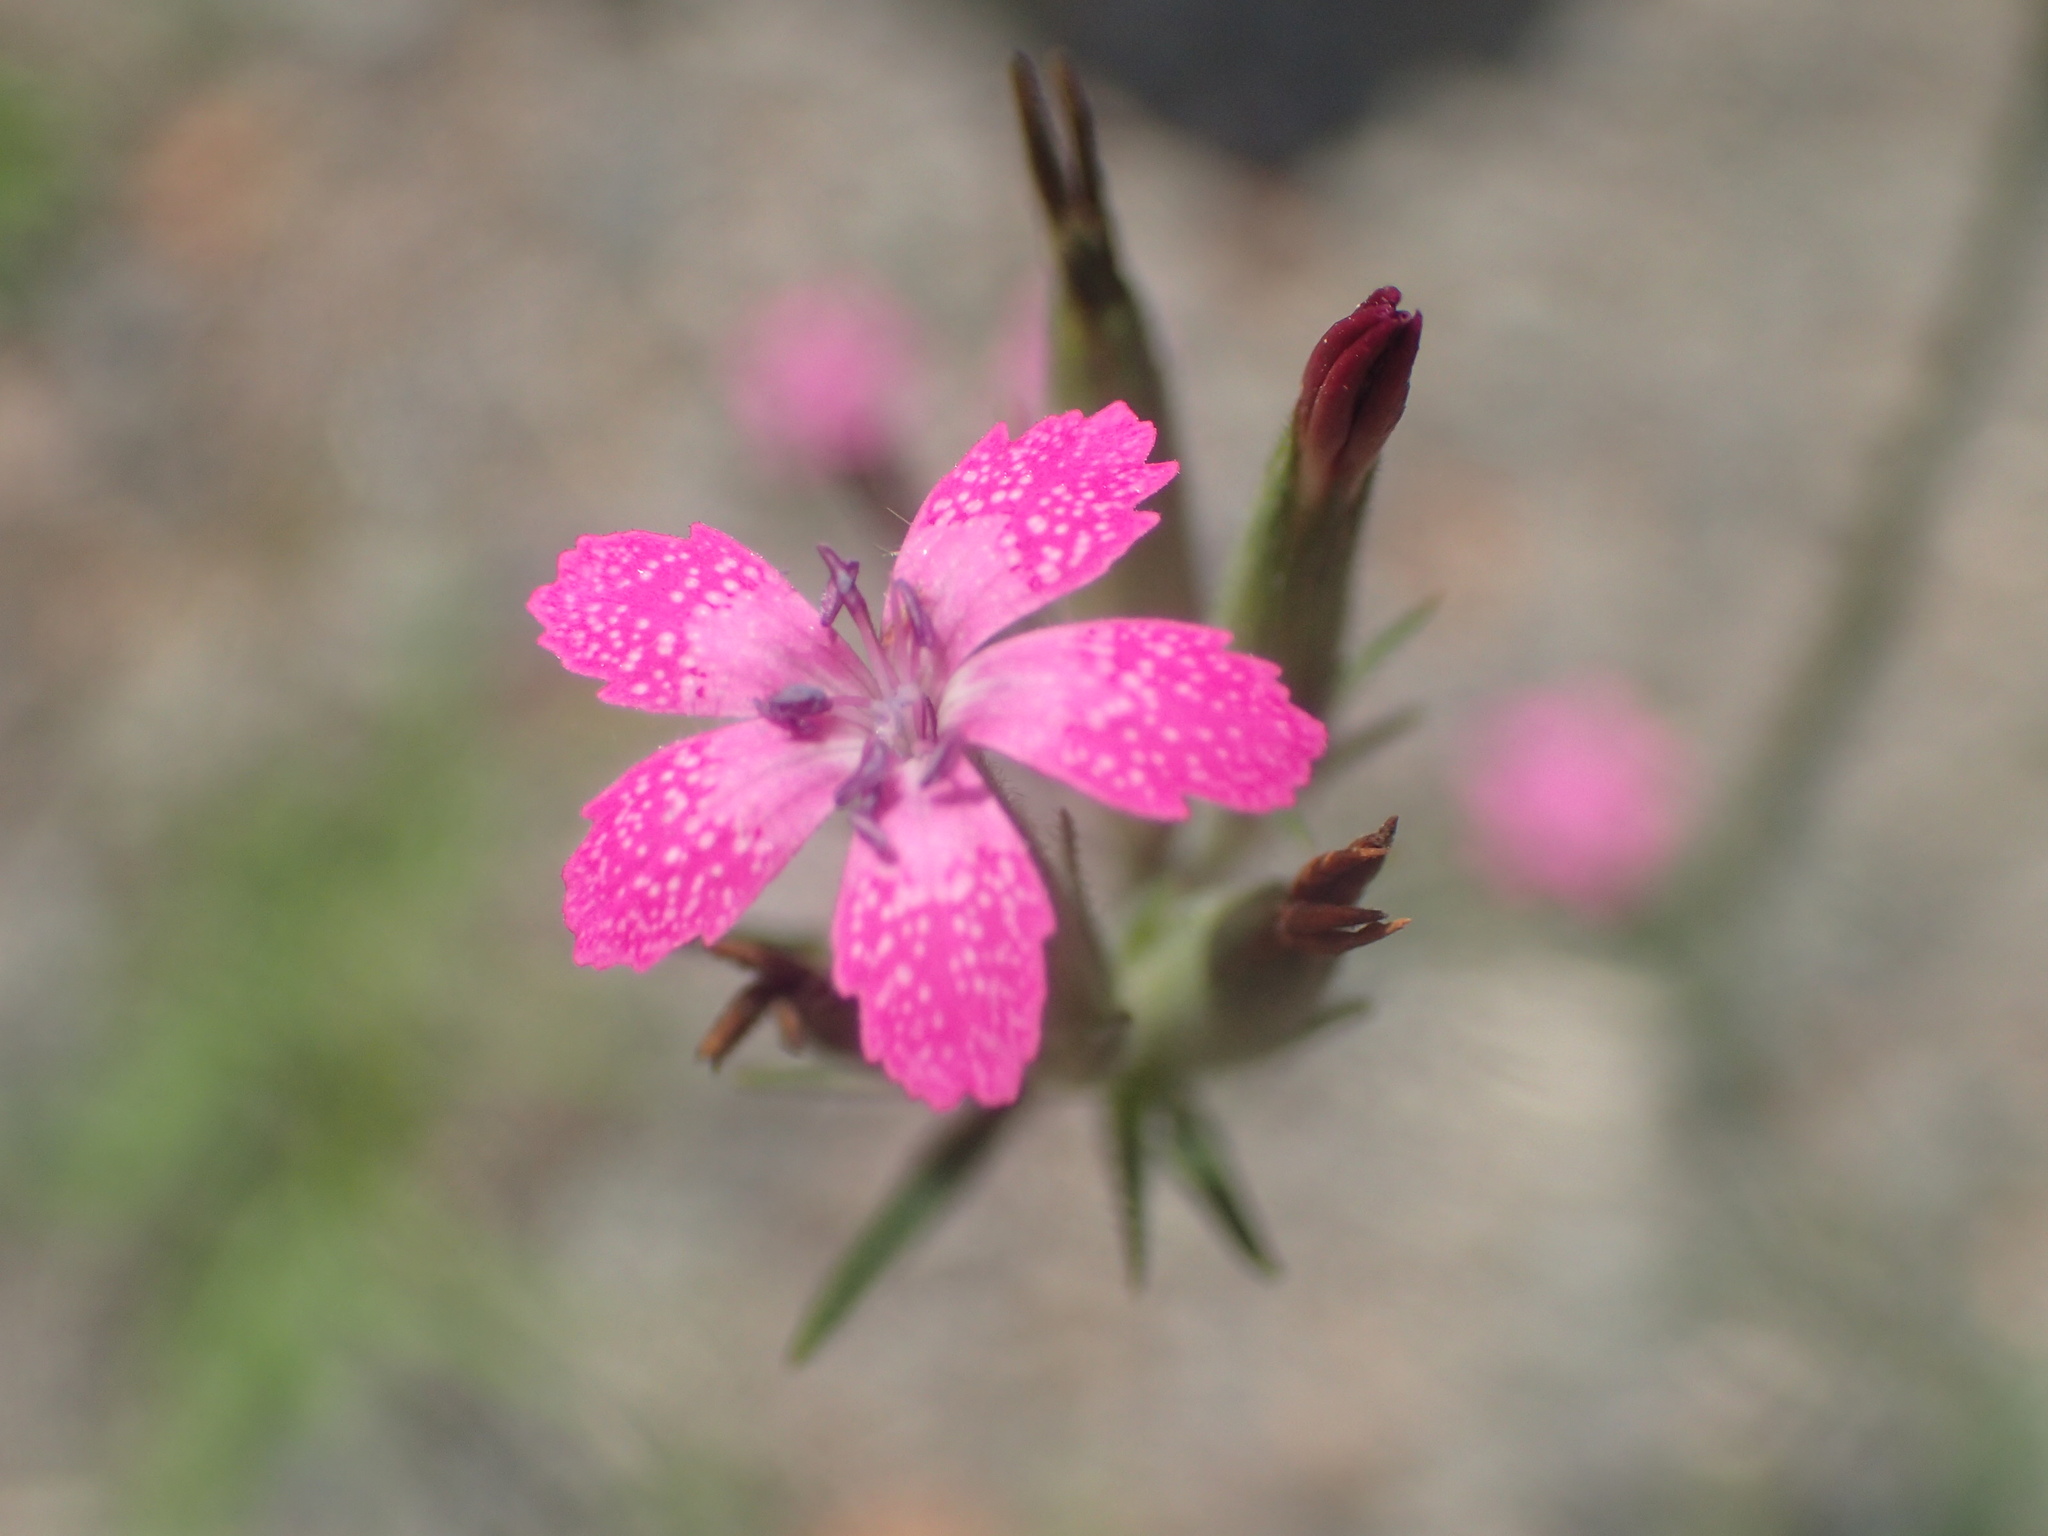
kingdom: Plantae
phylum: Tracheophyta
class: Magnoliopsida
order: Caryophyllales
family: Caryophyllaceae
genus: Dianthus
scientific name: Dianthus armeria
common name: Deptford pink
